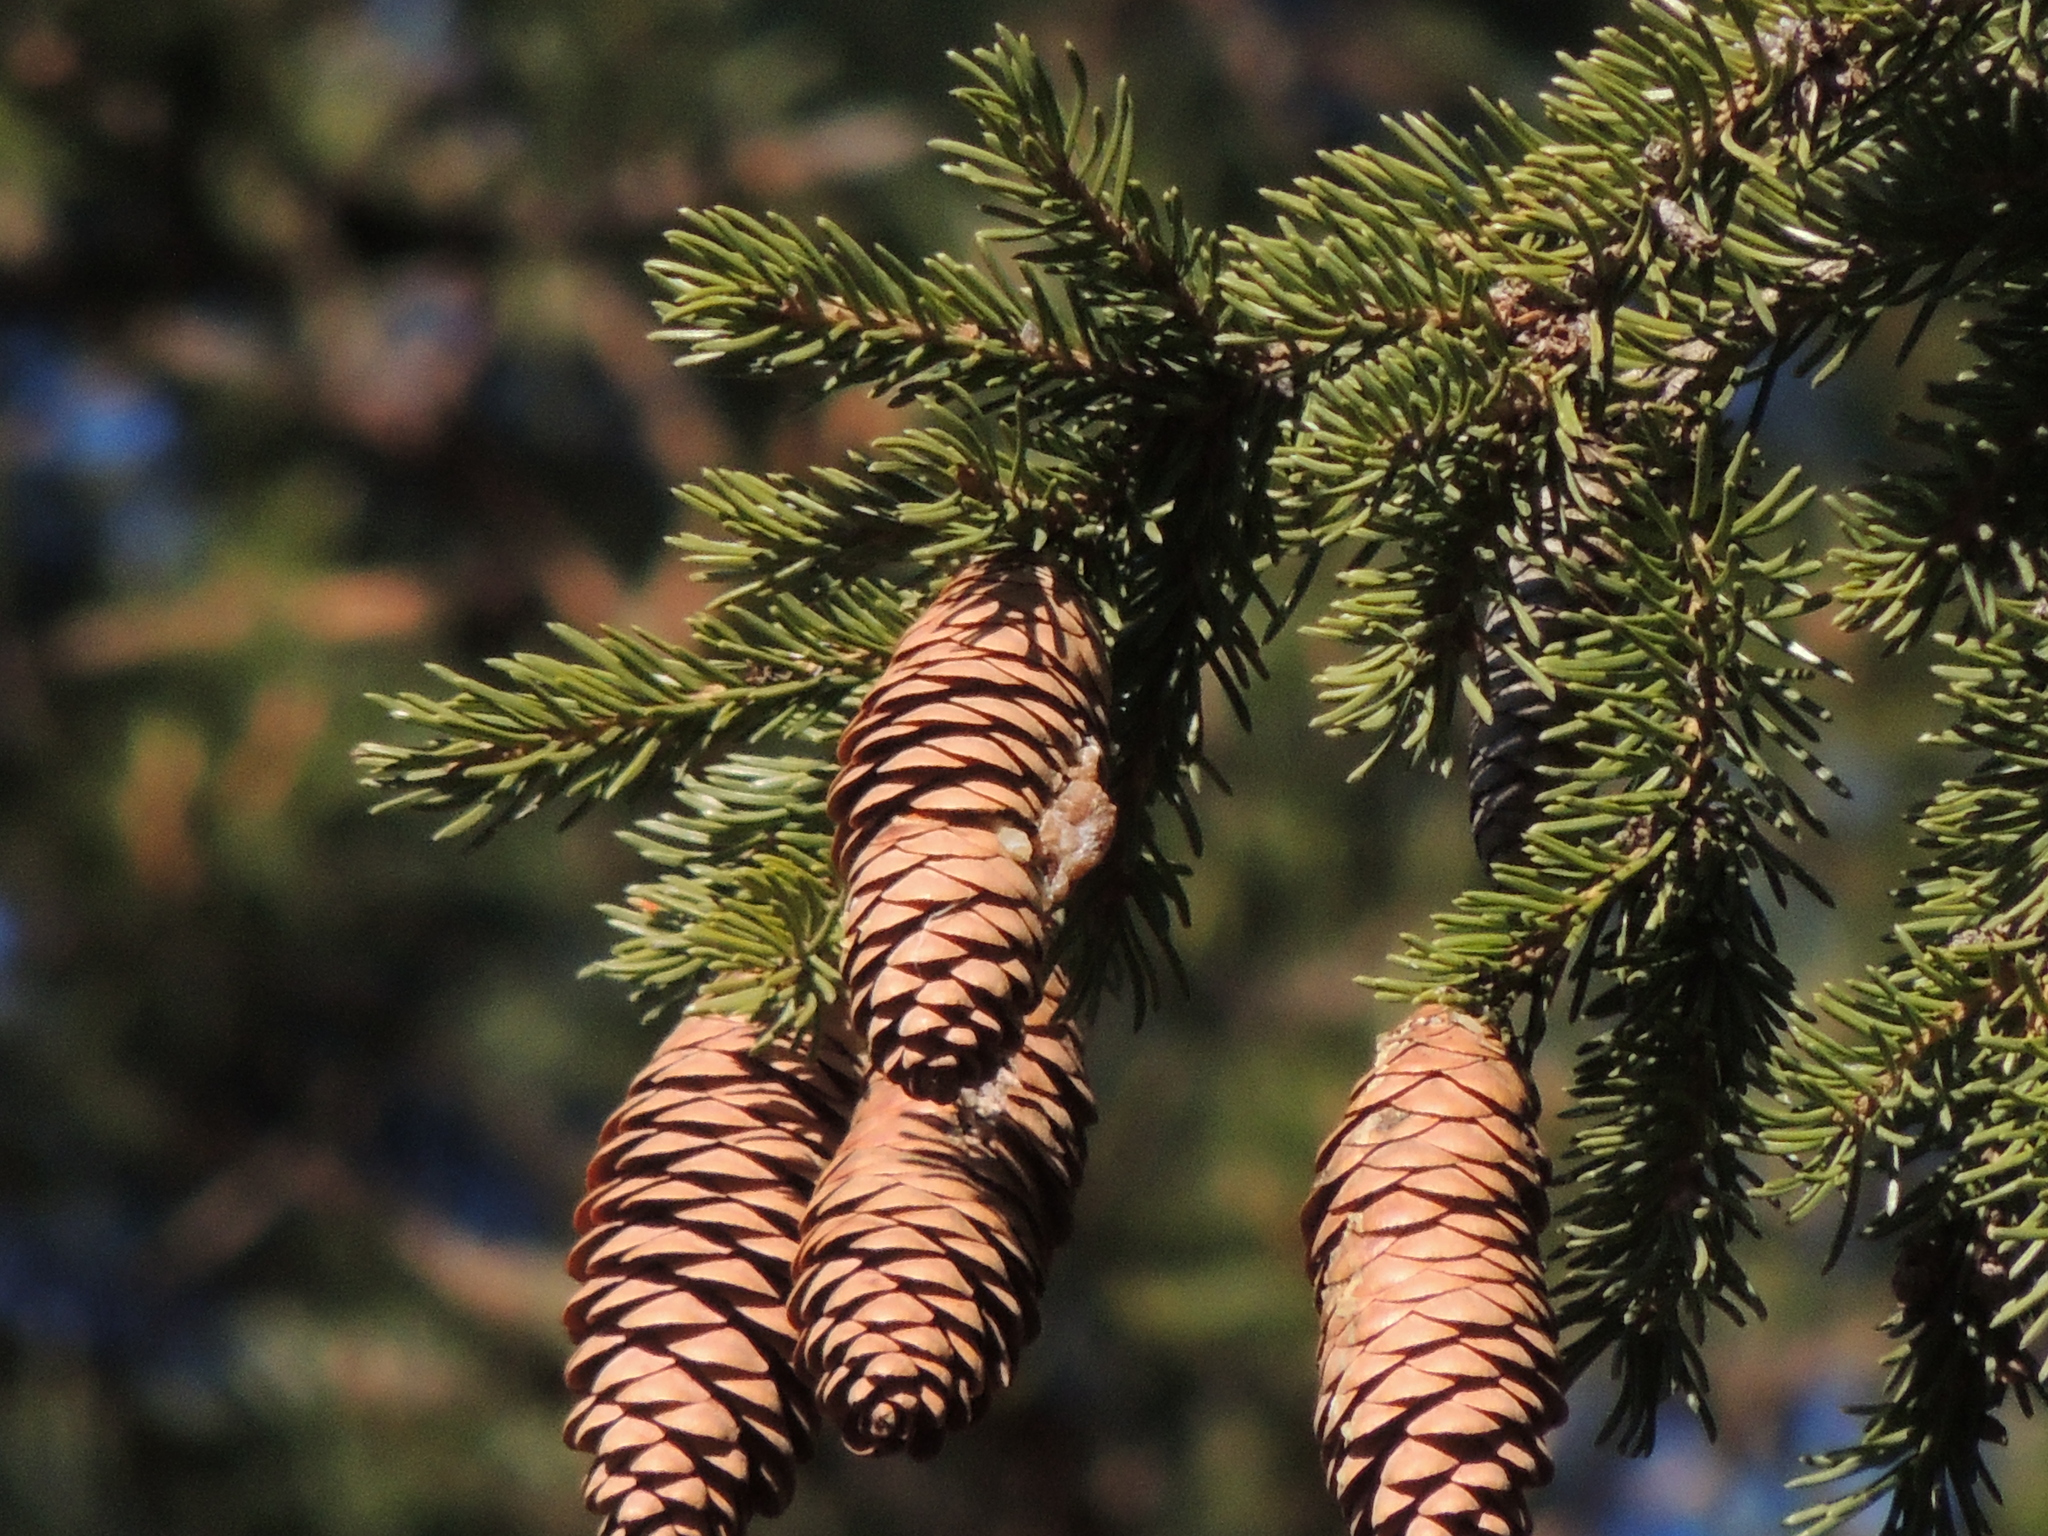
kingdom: Plantae
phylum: Tracheophyta
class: Pinopsida
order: Pinales
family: Pinaceae
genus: Picea
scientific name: Picea obovata
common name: Siberian spruce
